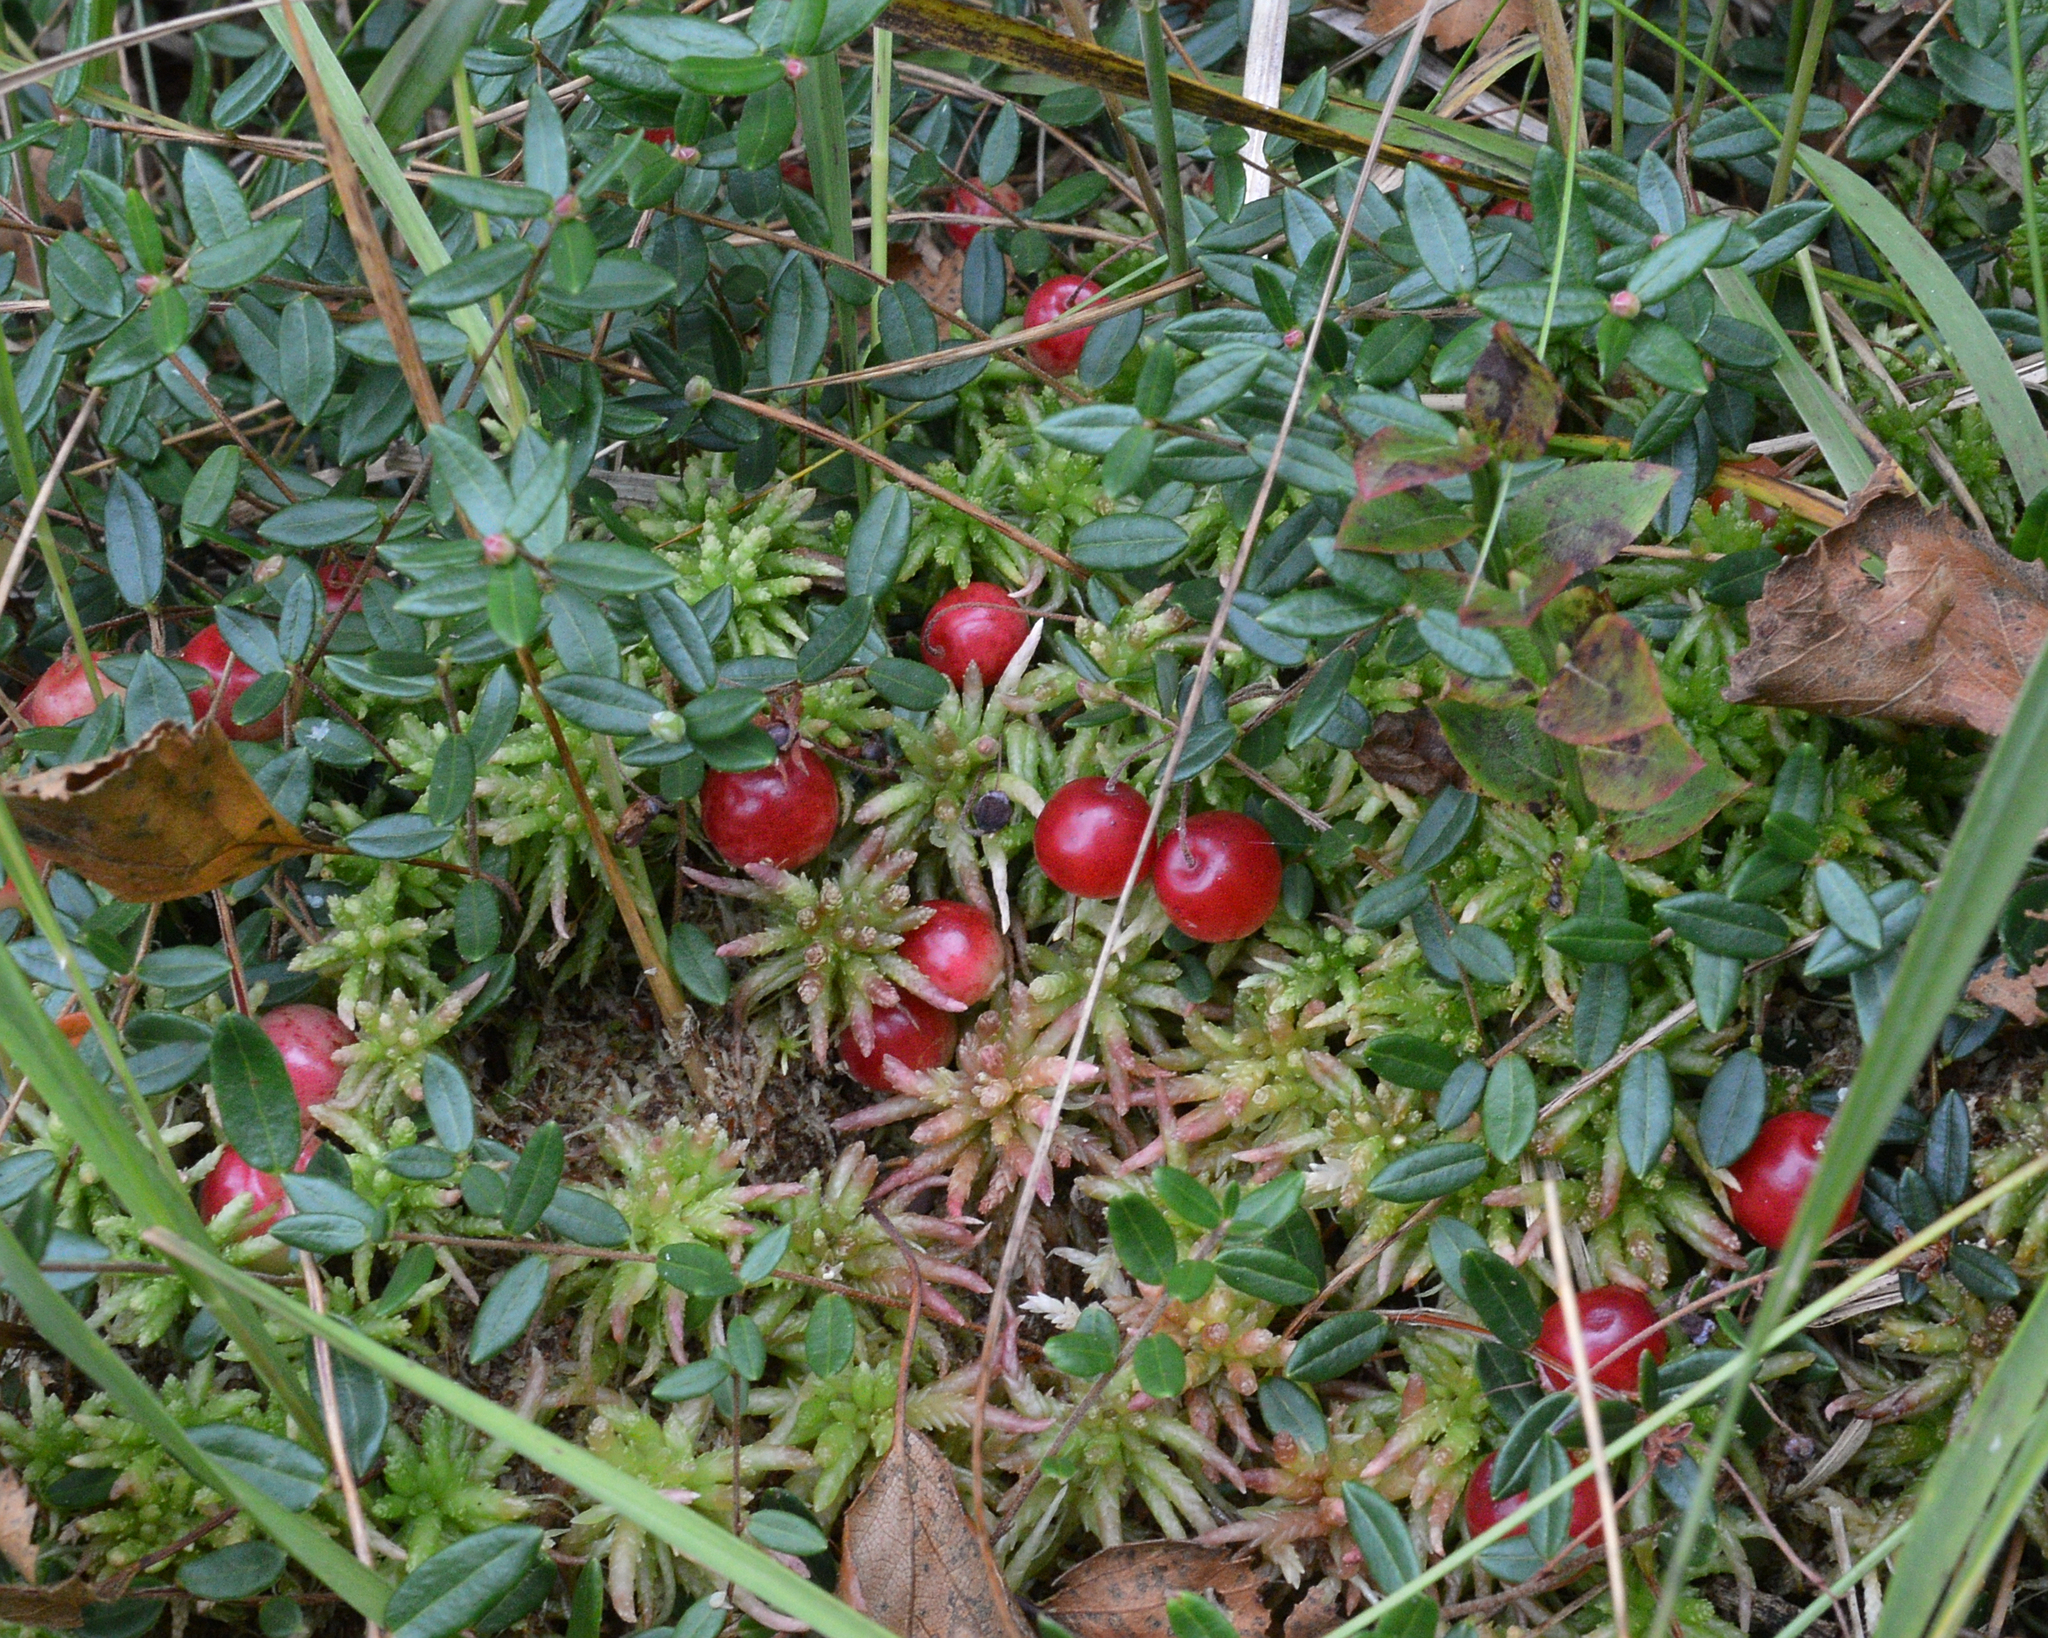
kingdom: Plantae
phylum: Tracheophyta
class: Magnoliopsida
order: Ericales
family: Ericaceae
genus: Vaccinium
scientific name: Vaccinium oxycoccos
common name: Cranberry
